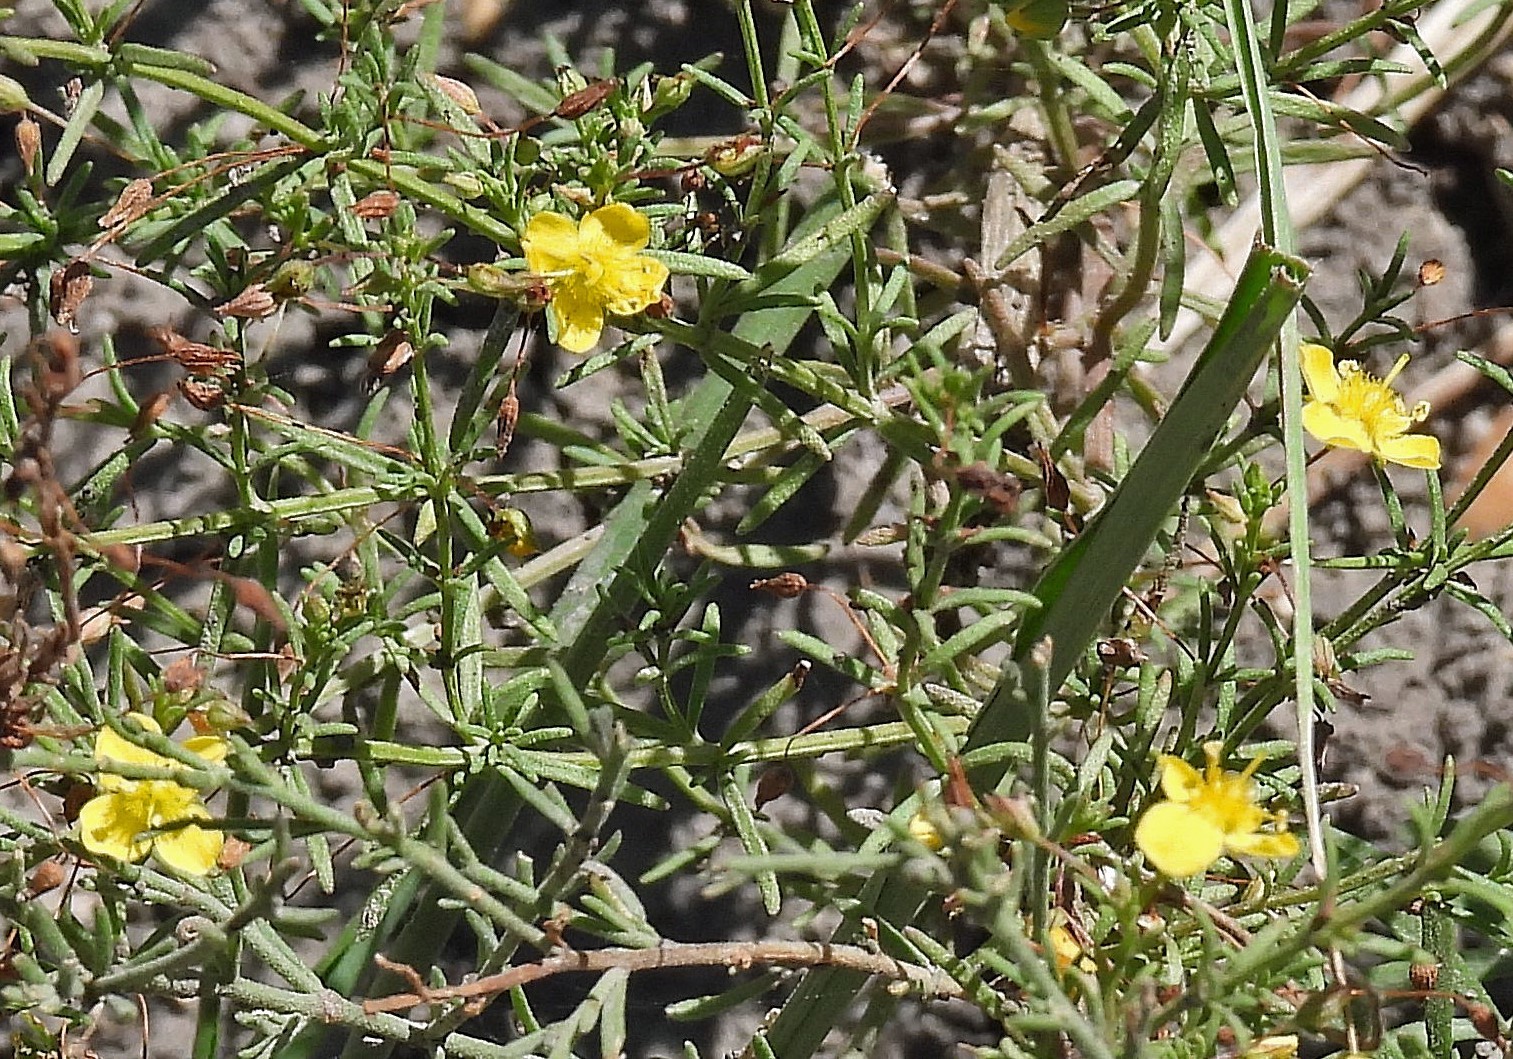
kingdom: Plantae
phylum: Tracheophyta
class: Magnoliopsida
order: Lamiales
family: Plantaginaceae
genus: Scoparia
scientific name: Scoparia montevidensis
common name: Broomwort
